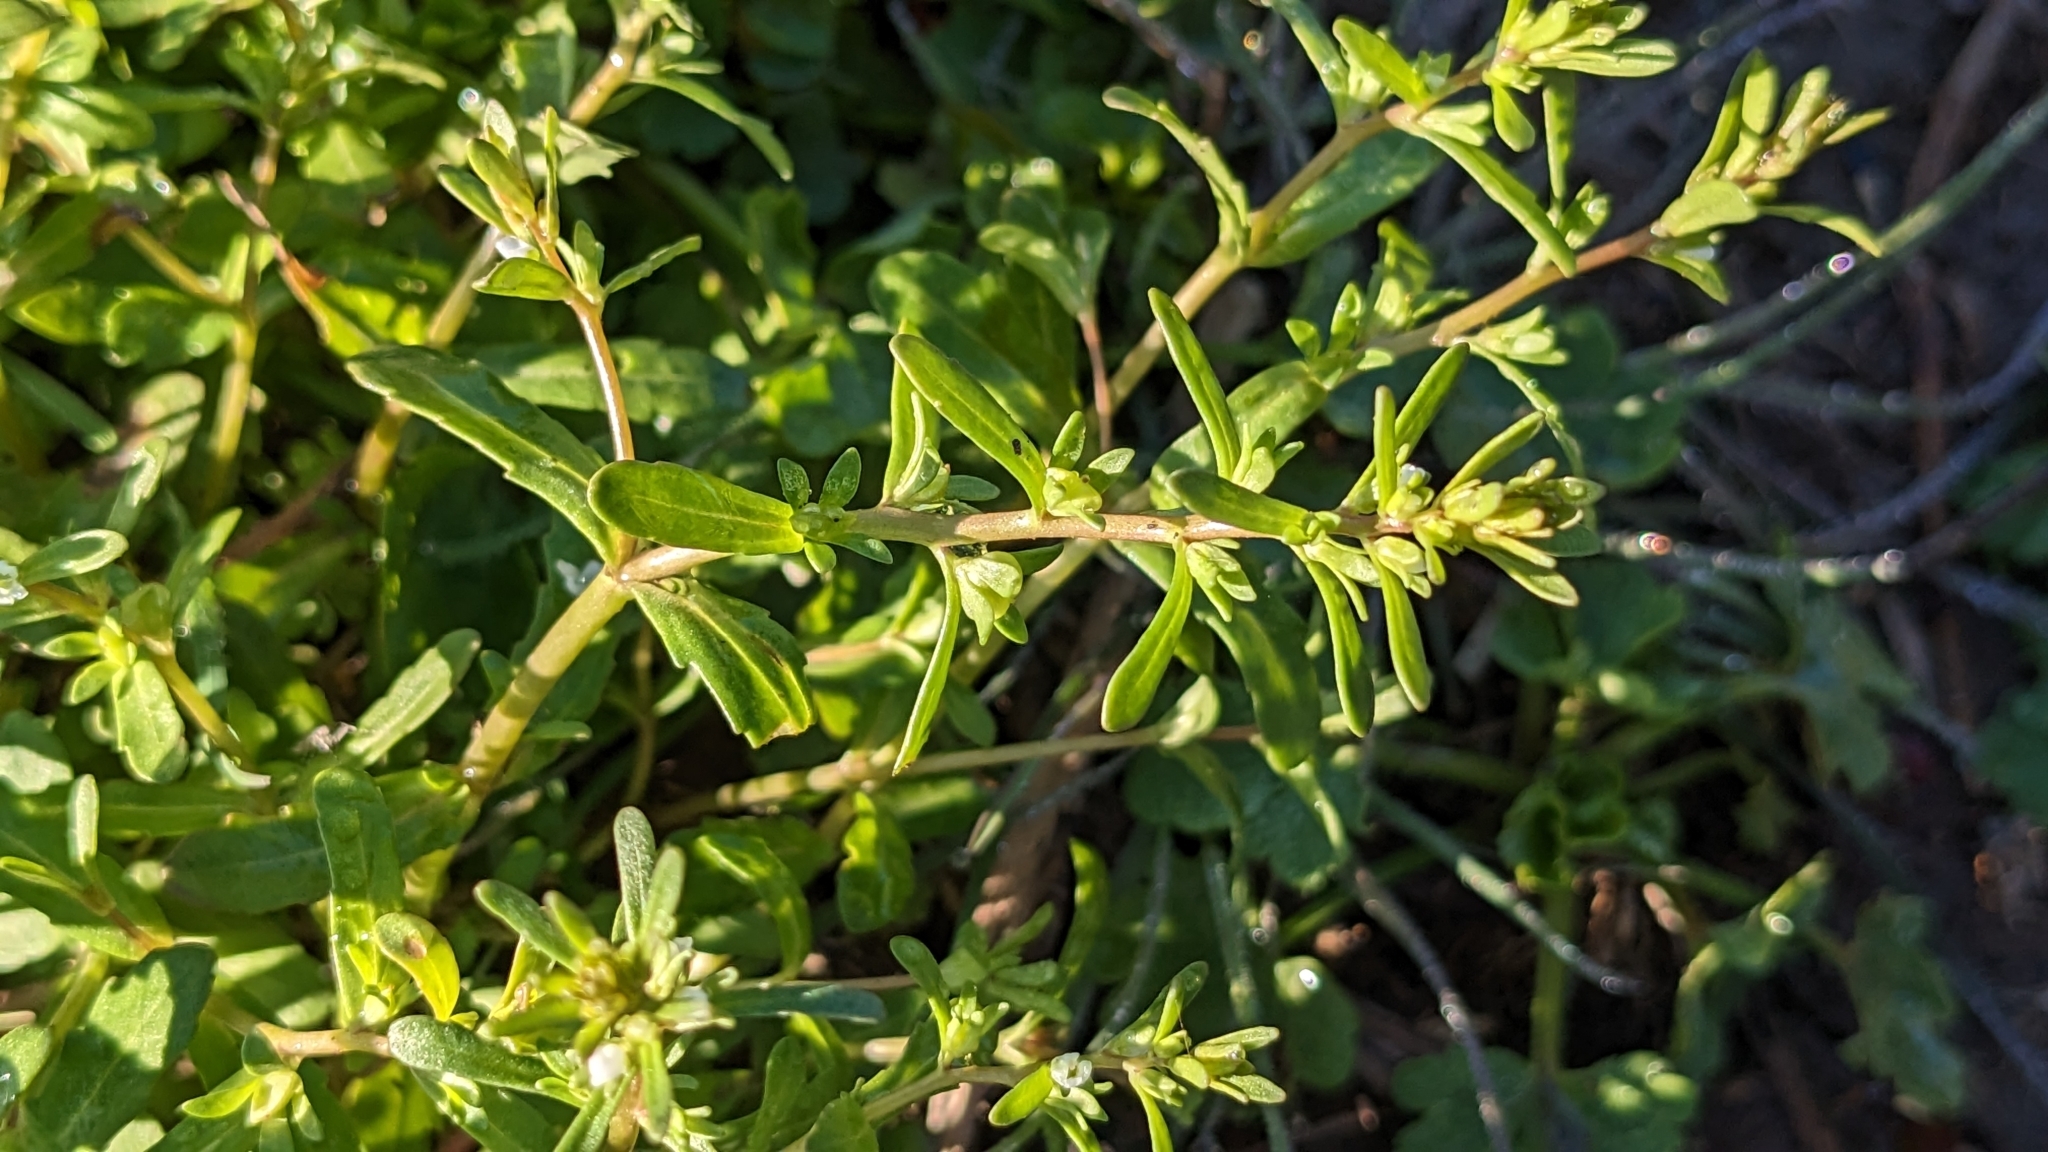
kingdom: Plantae
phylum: Tracheophyta
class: Magnoliopsida
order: Lamiales
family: Plantaginaceae
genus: Veronica
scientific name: Veronica peregrina
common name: Neckweed
